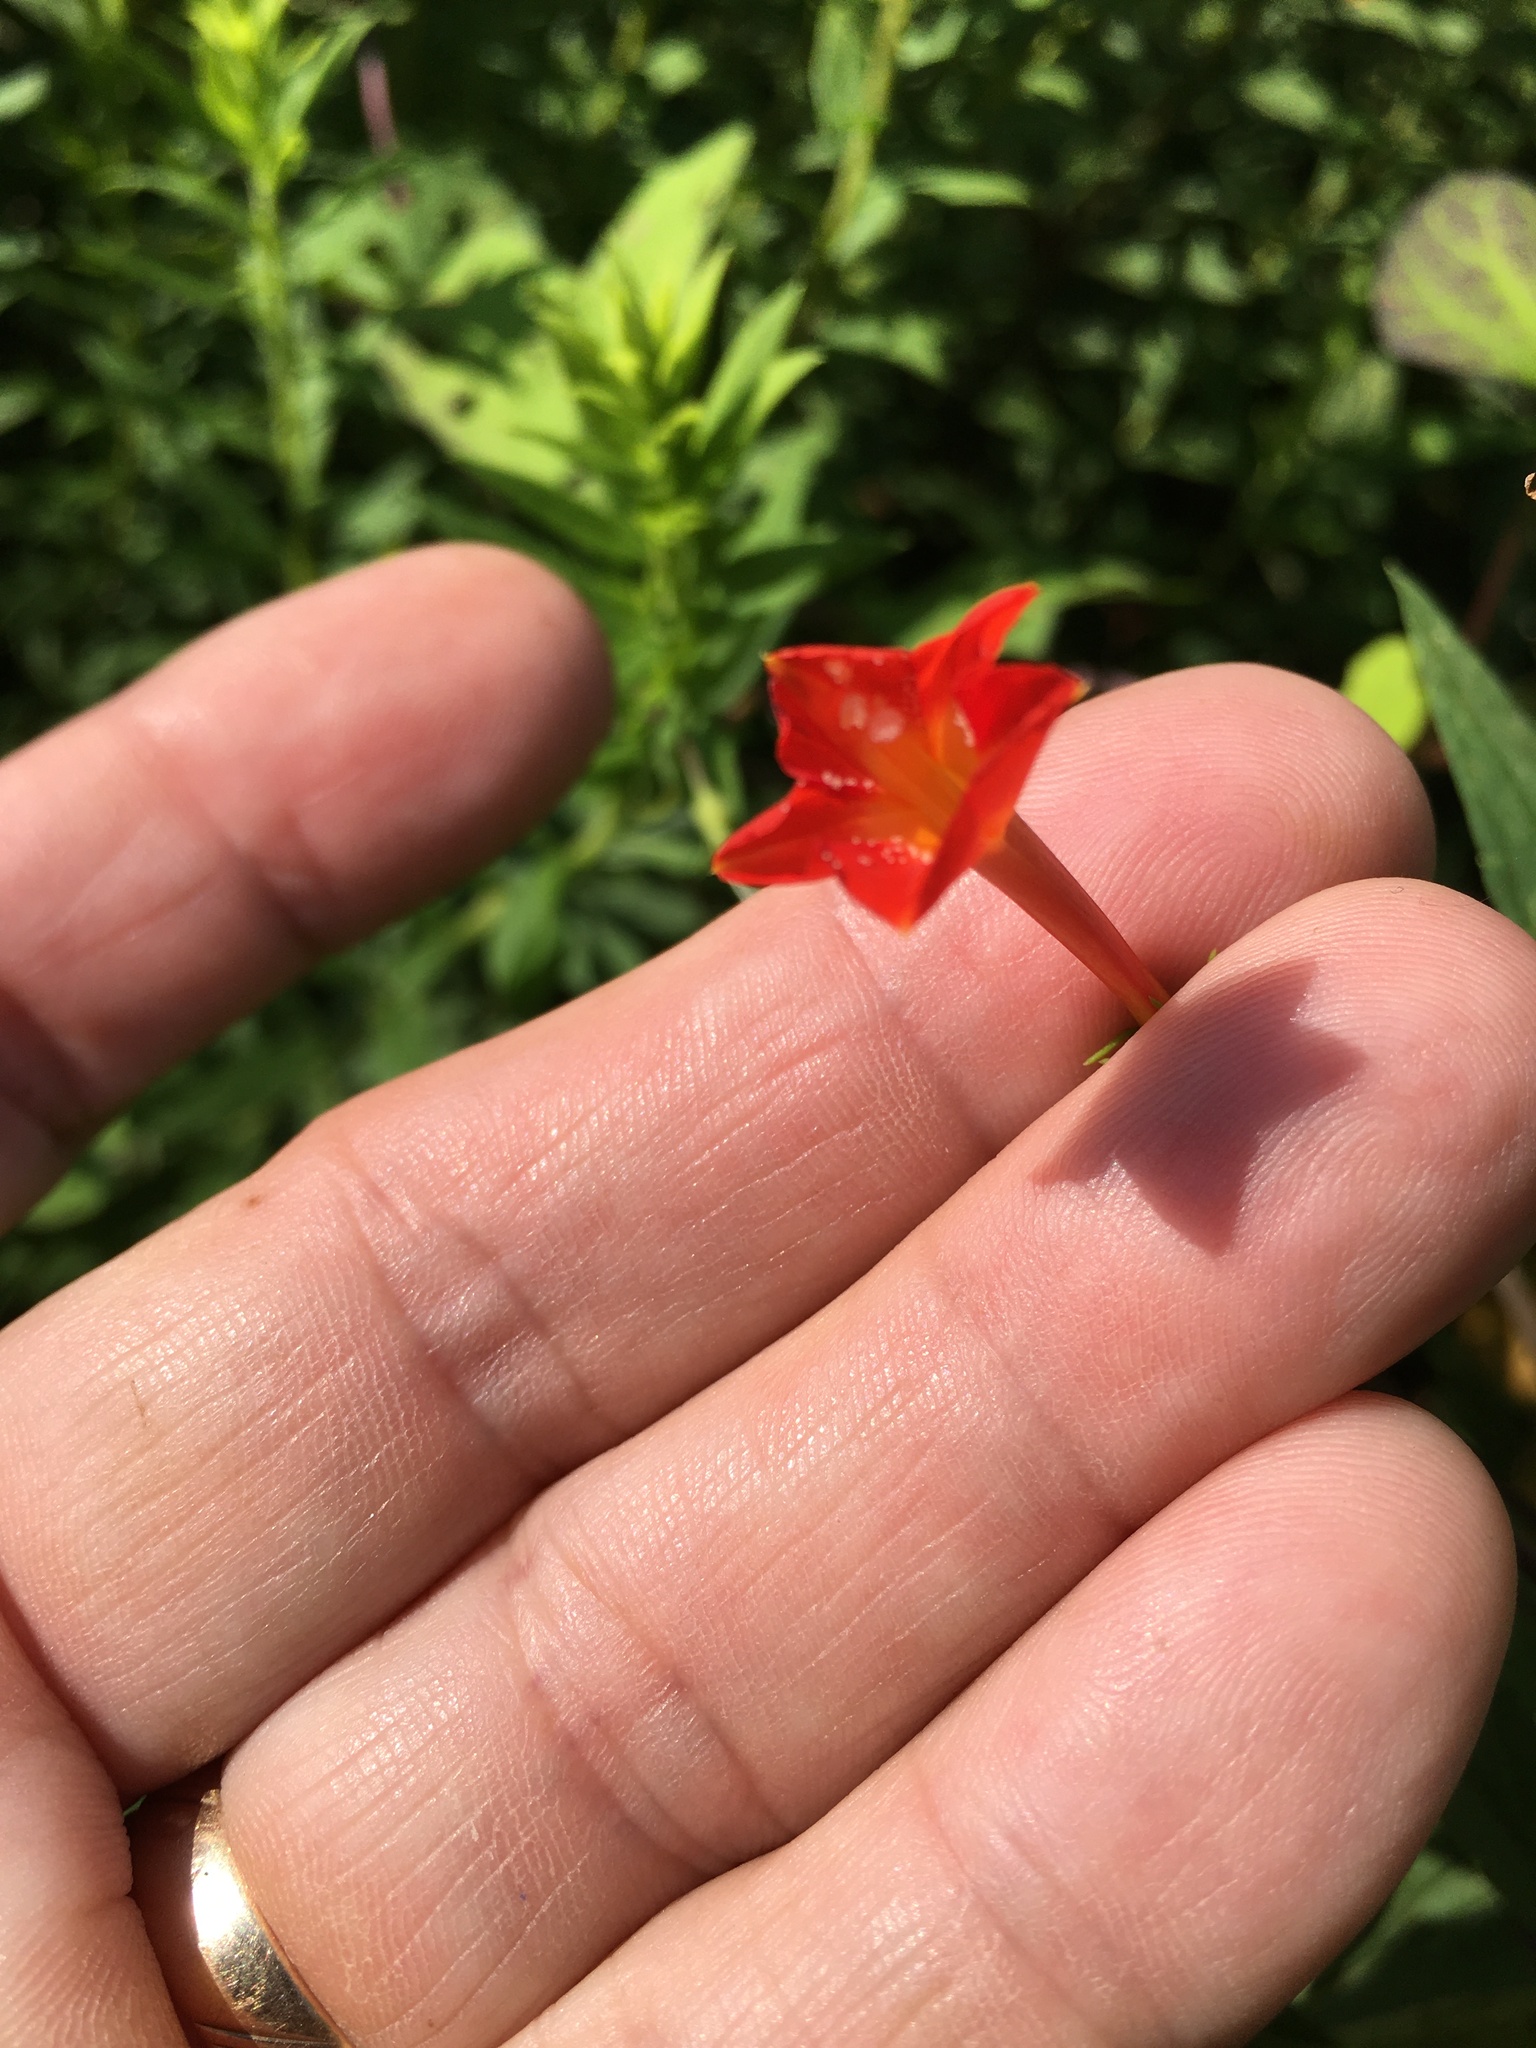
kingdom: Plantae
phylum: Tracheophyta
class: Magnoliopsida
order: Solanales
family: Convolvulaceae
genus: Ipomoea
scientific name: Ipomoea coccinea
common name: Red morning-glory
